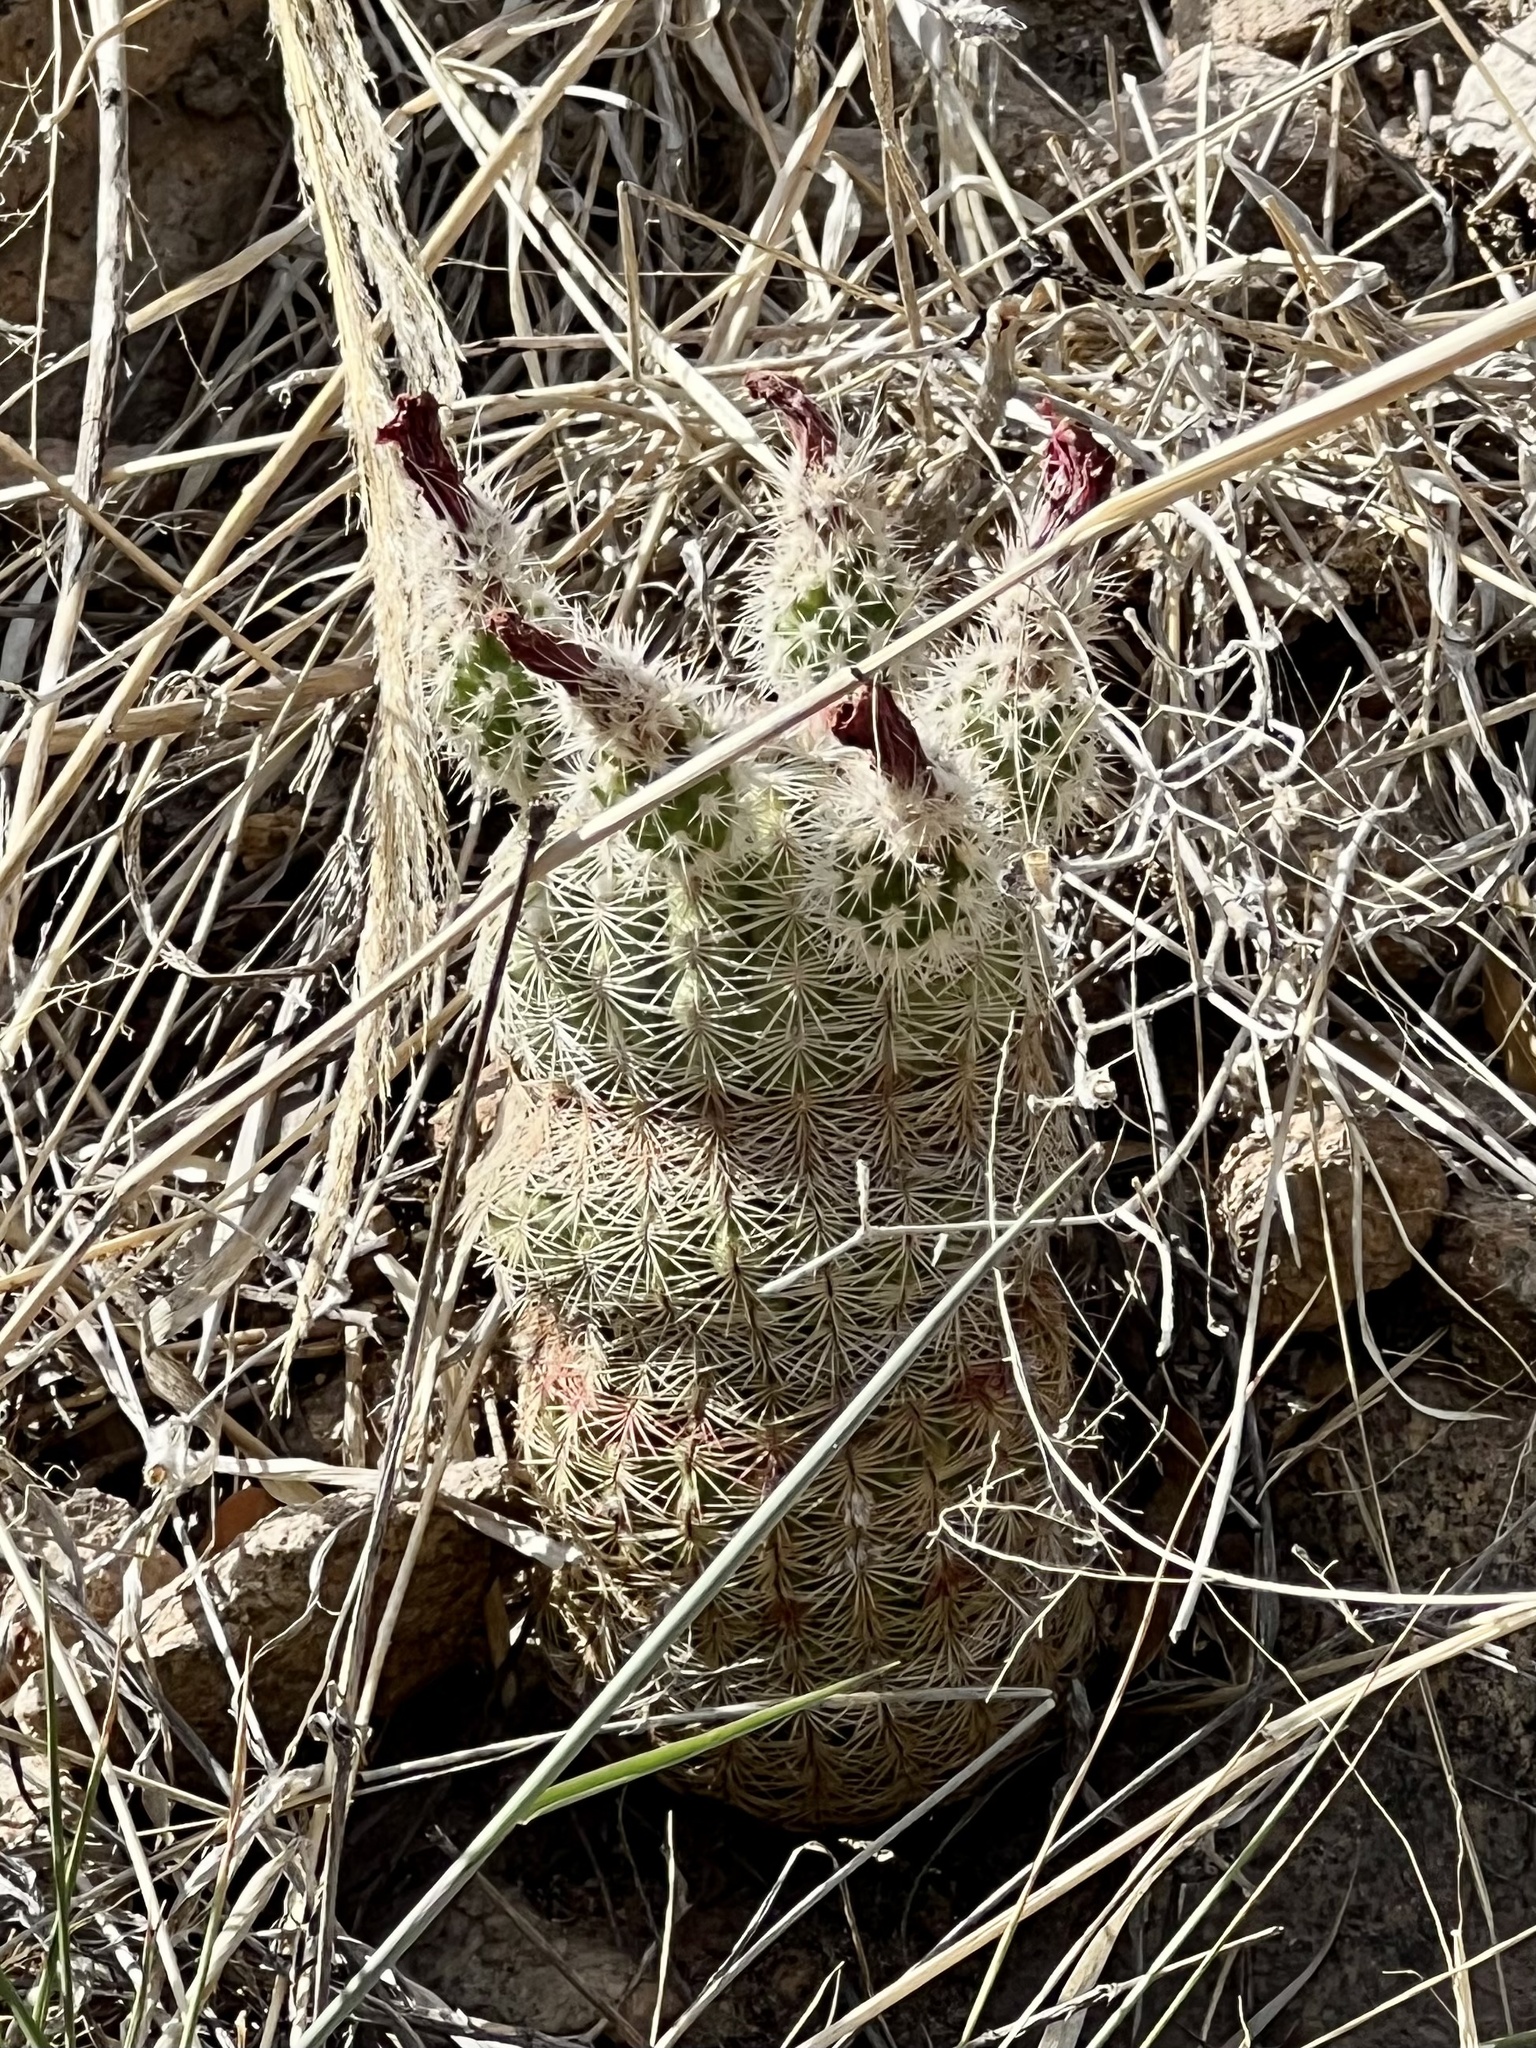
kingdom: Plantae
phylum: Tracheophyta
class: Magnoliopsida
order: Caryophyllales
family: Cactaceae
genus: Echinocereus
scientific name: Echinocereus rigidissimus
